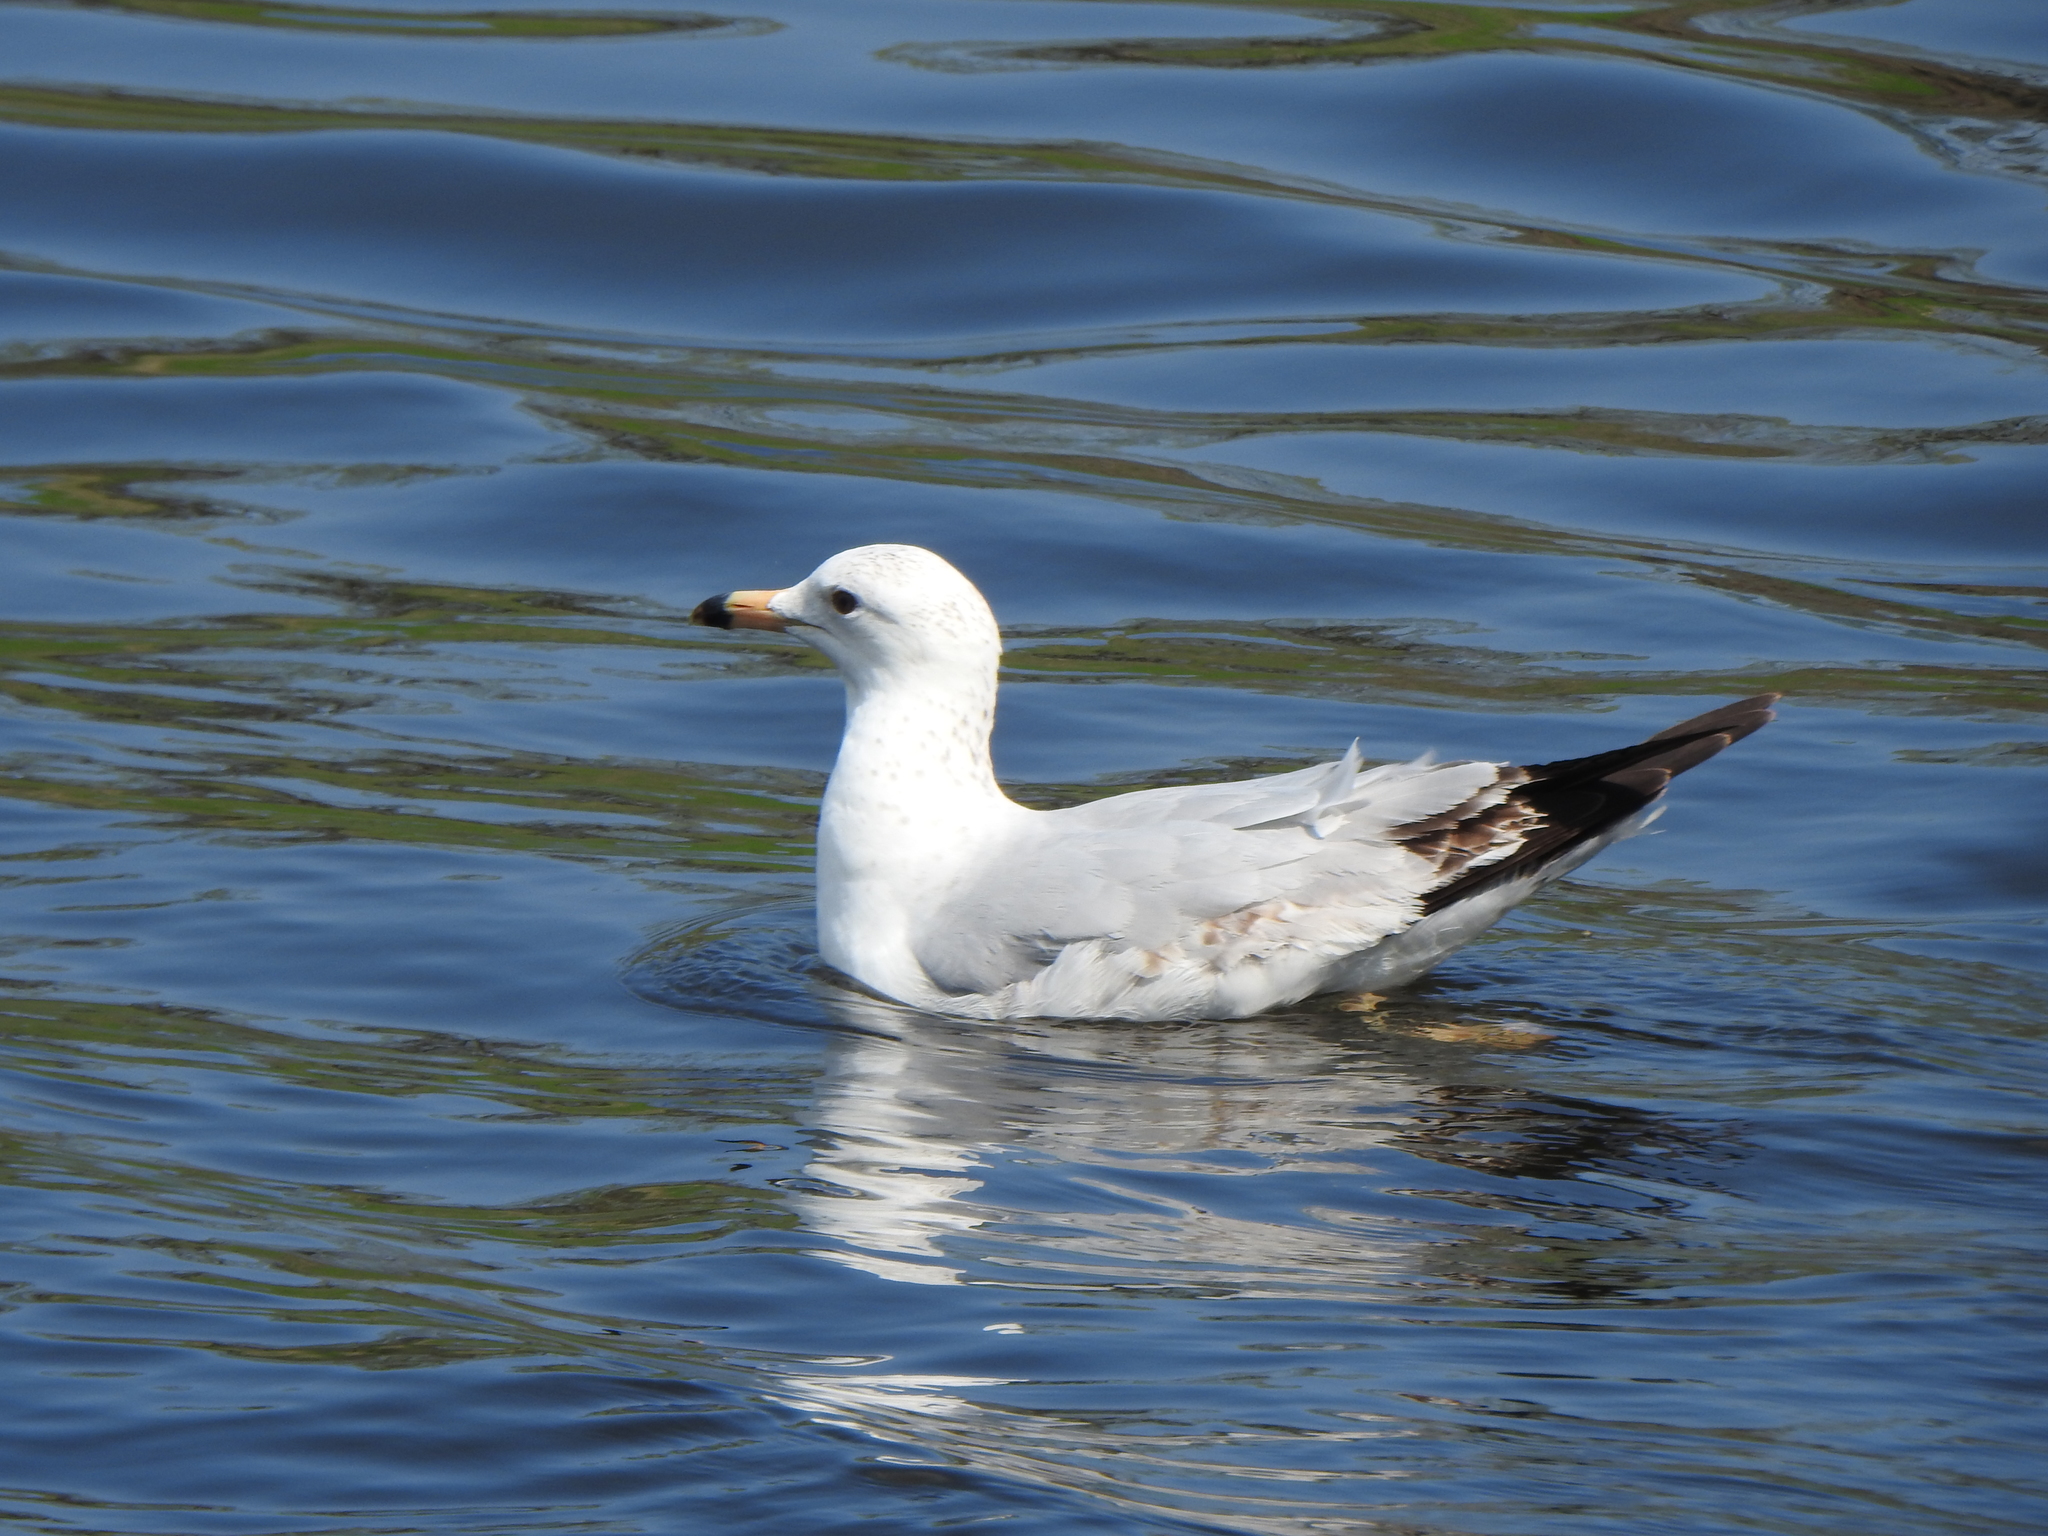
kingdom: Animalia
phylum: Chordata
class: Aves
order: Charadriiformes
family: Laridae
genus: Larus
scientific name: Larus delawarensis
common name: Ring-billed gull
